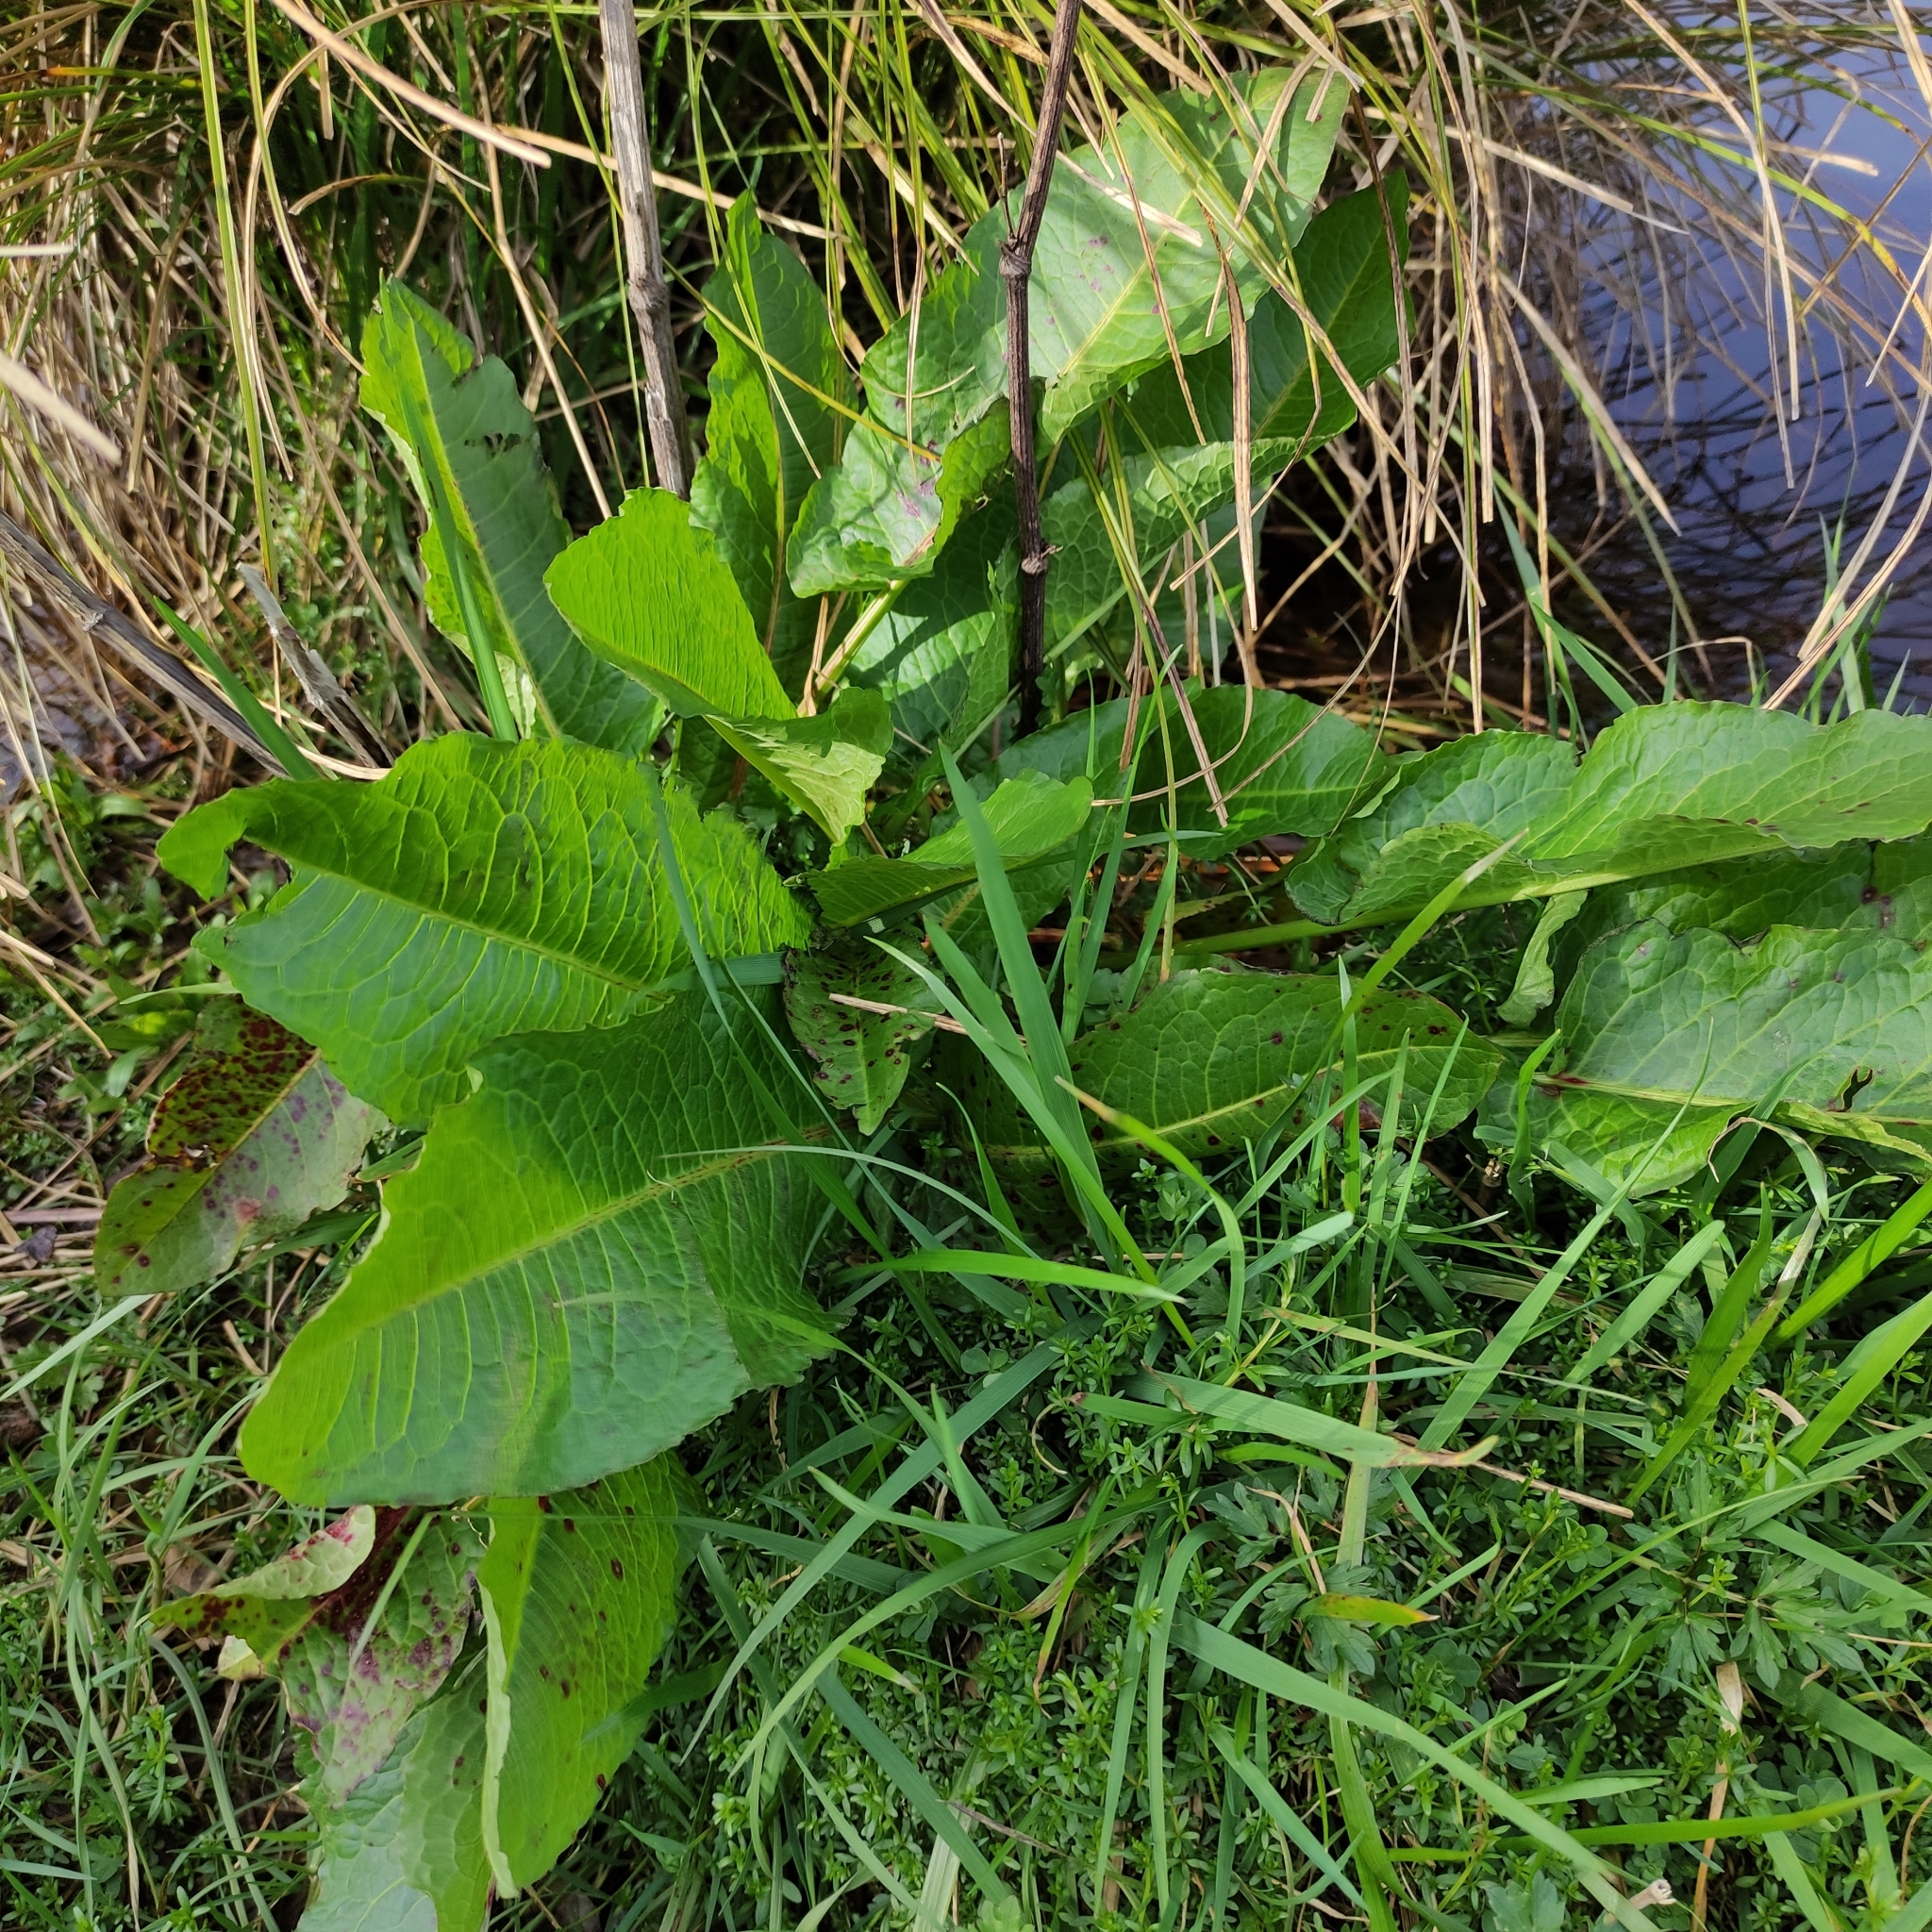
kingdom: Plantae
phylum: Tracheophyta
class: Magnoliopsida
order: Caryophyllales
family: Polygonaceae
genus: Rumex
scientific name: Rumex obtusifolius
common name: Bitter dock
